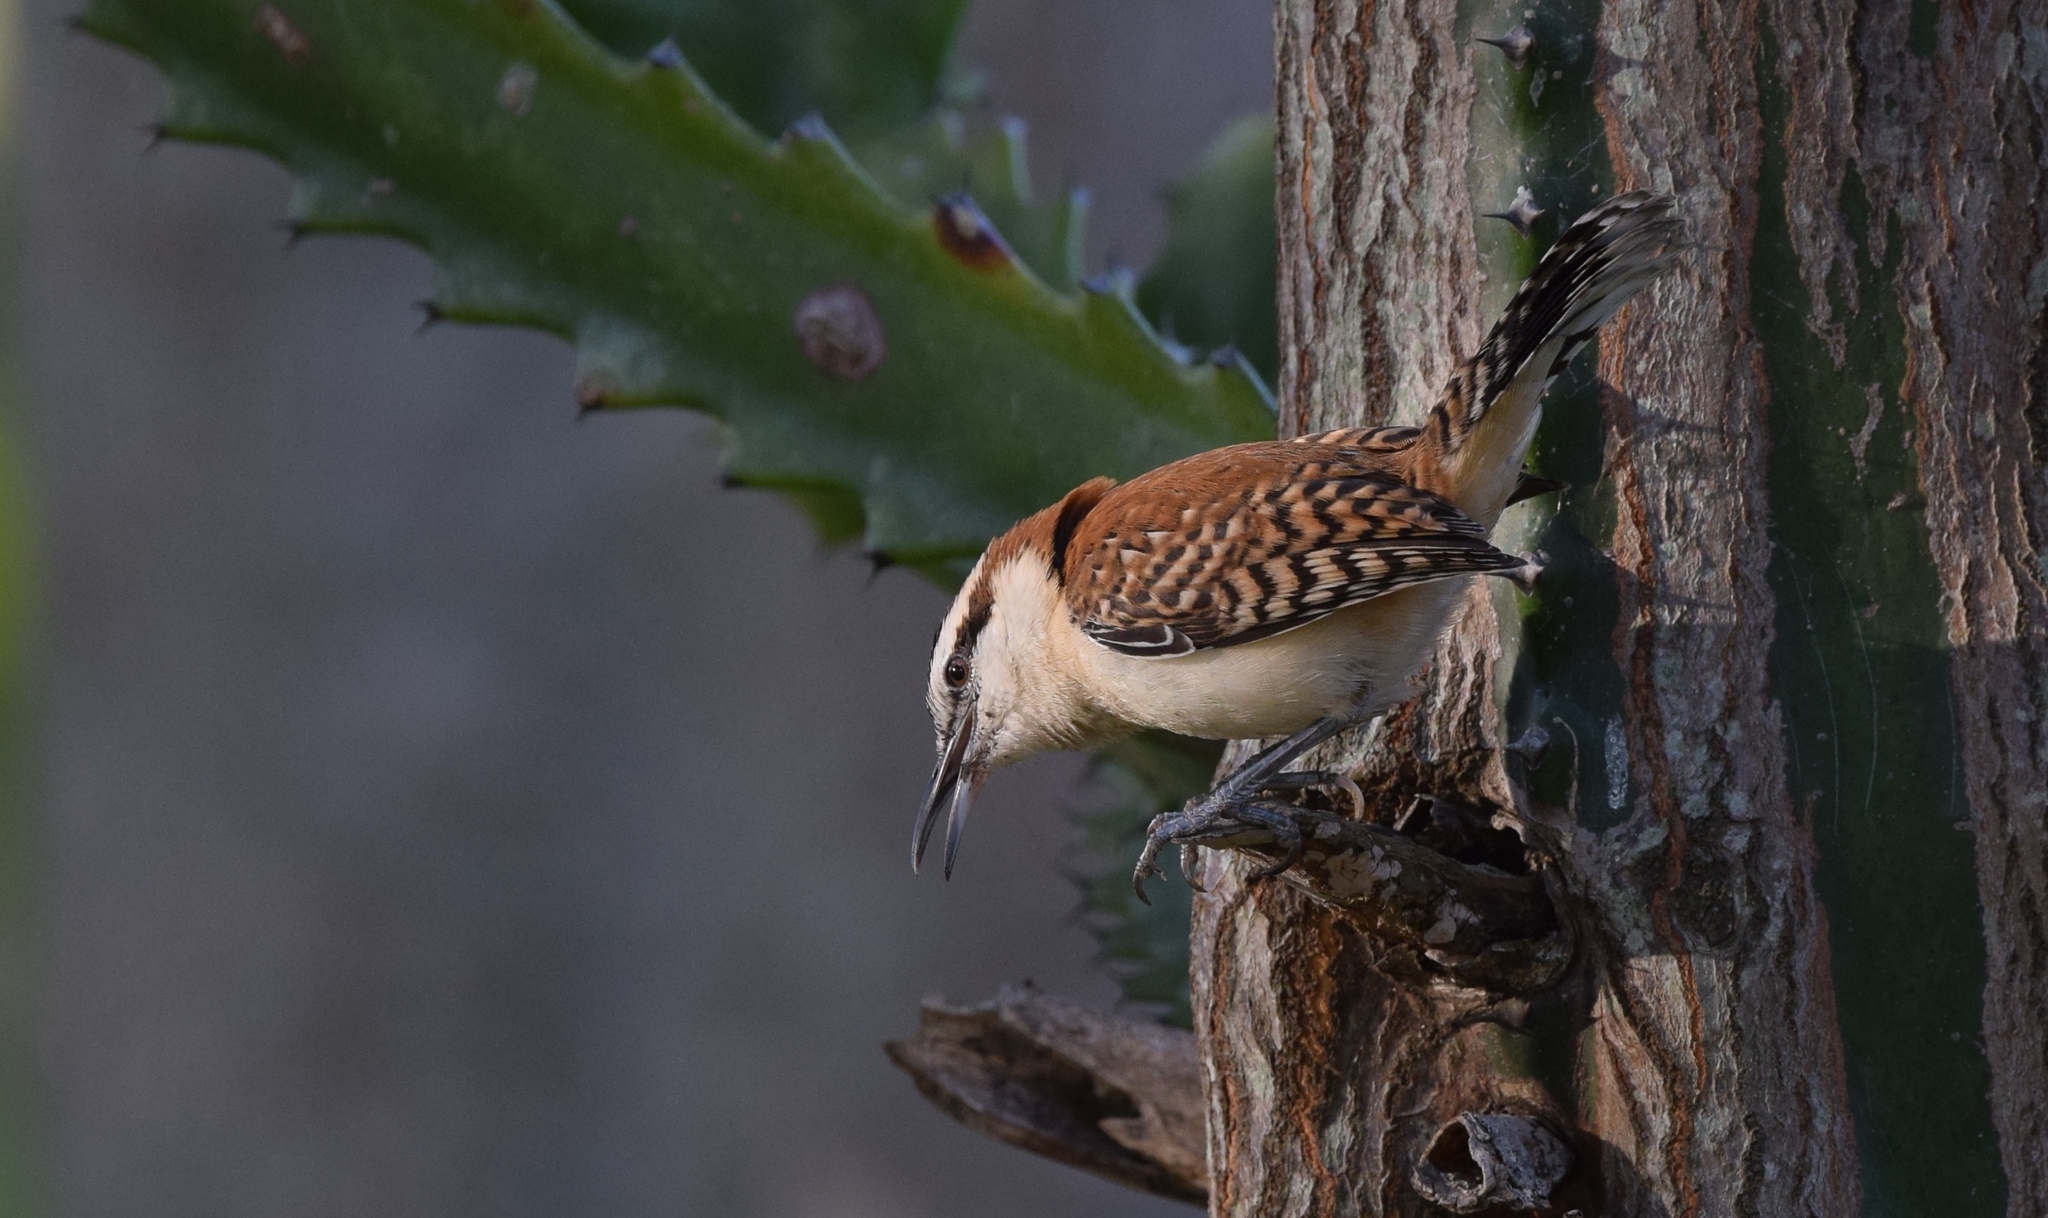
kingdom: Animalia
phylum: Chordata
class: Aves
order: Passeriformes
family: Troglodytidae
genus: Campylorhynchus
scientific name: Campylorhynchus rufinucha
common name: Rufous-naped wren
